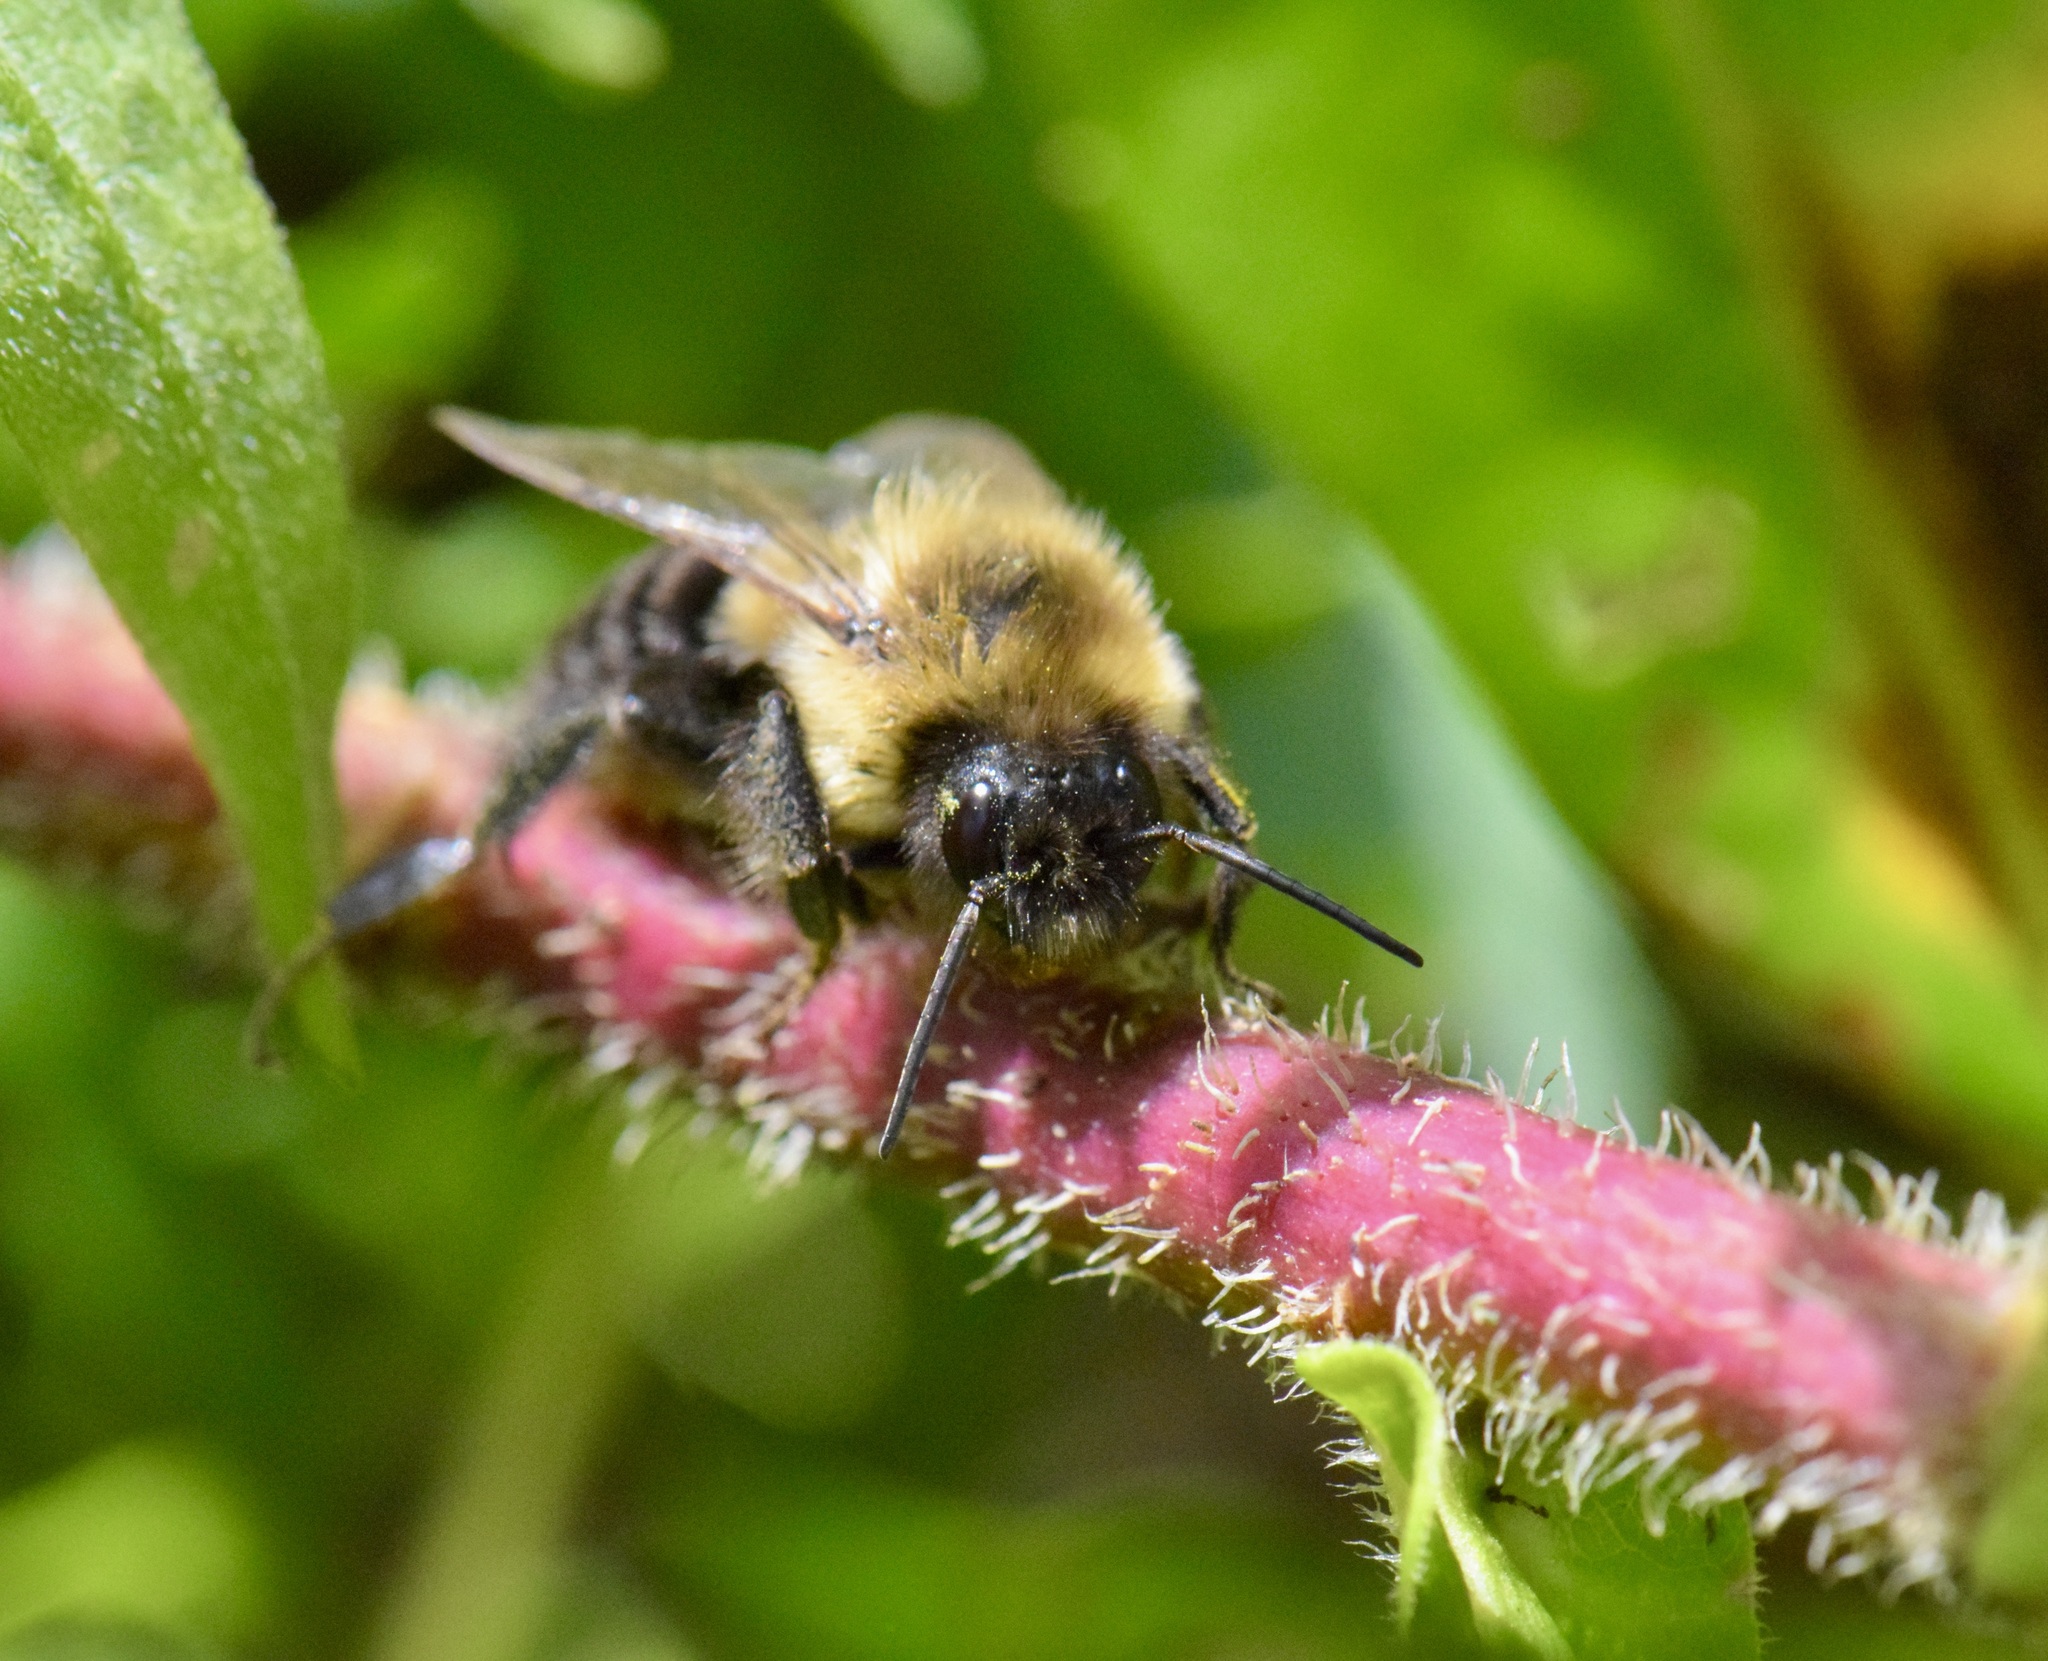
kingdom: Animalia
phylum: Arthropoda
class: Insecta
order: Hymenoptera
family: Apidae
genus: Bombus
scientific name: Bombus impatiens
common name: Common eastern bumble bee
